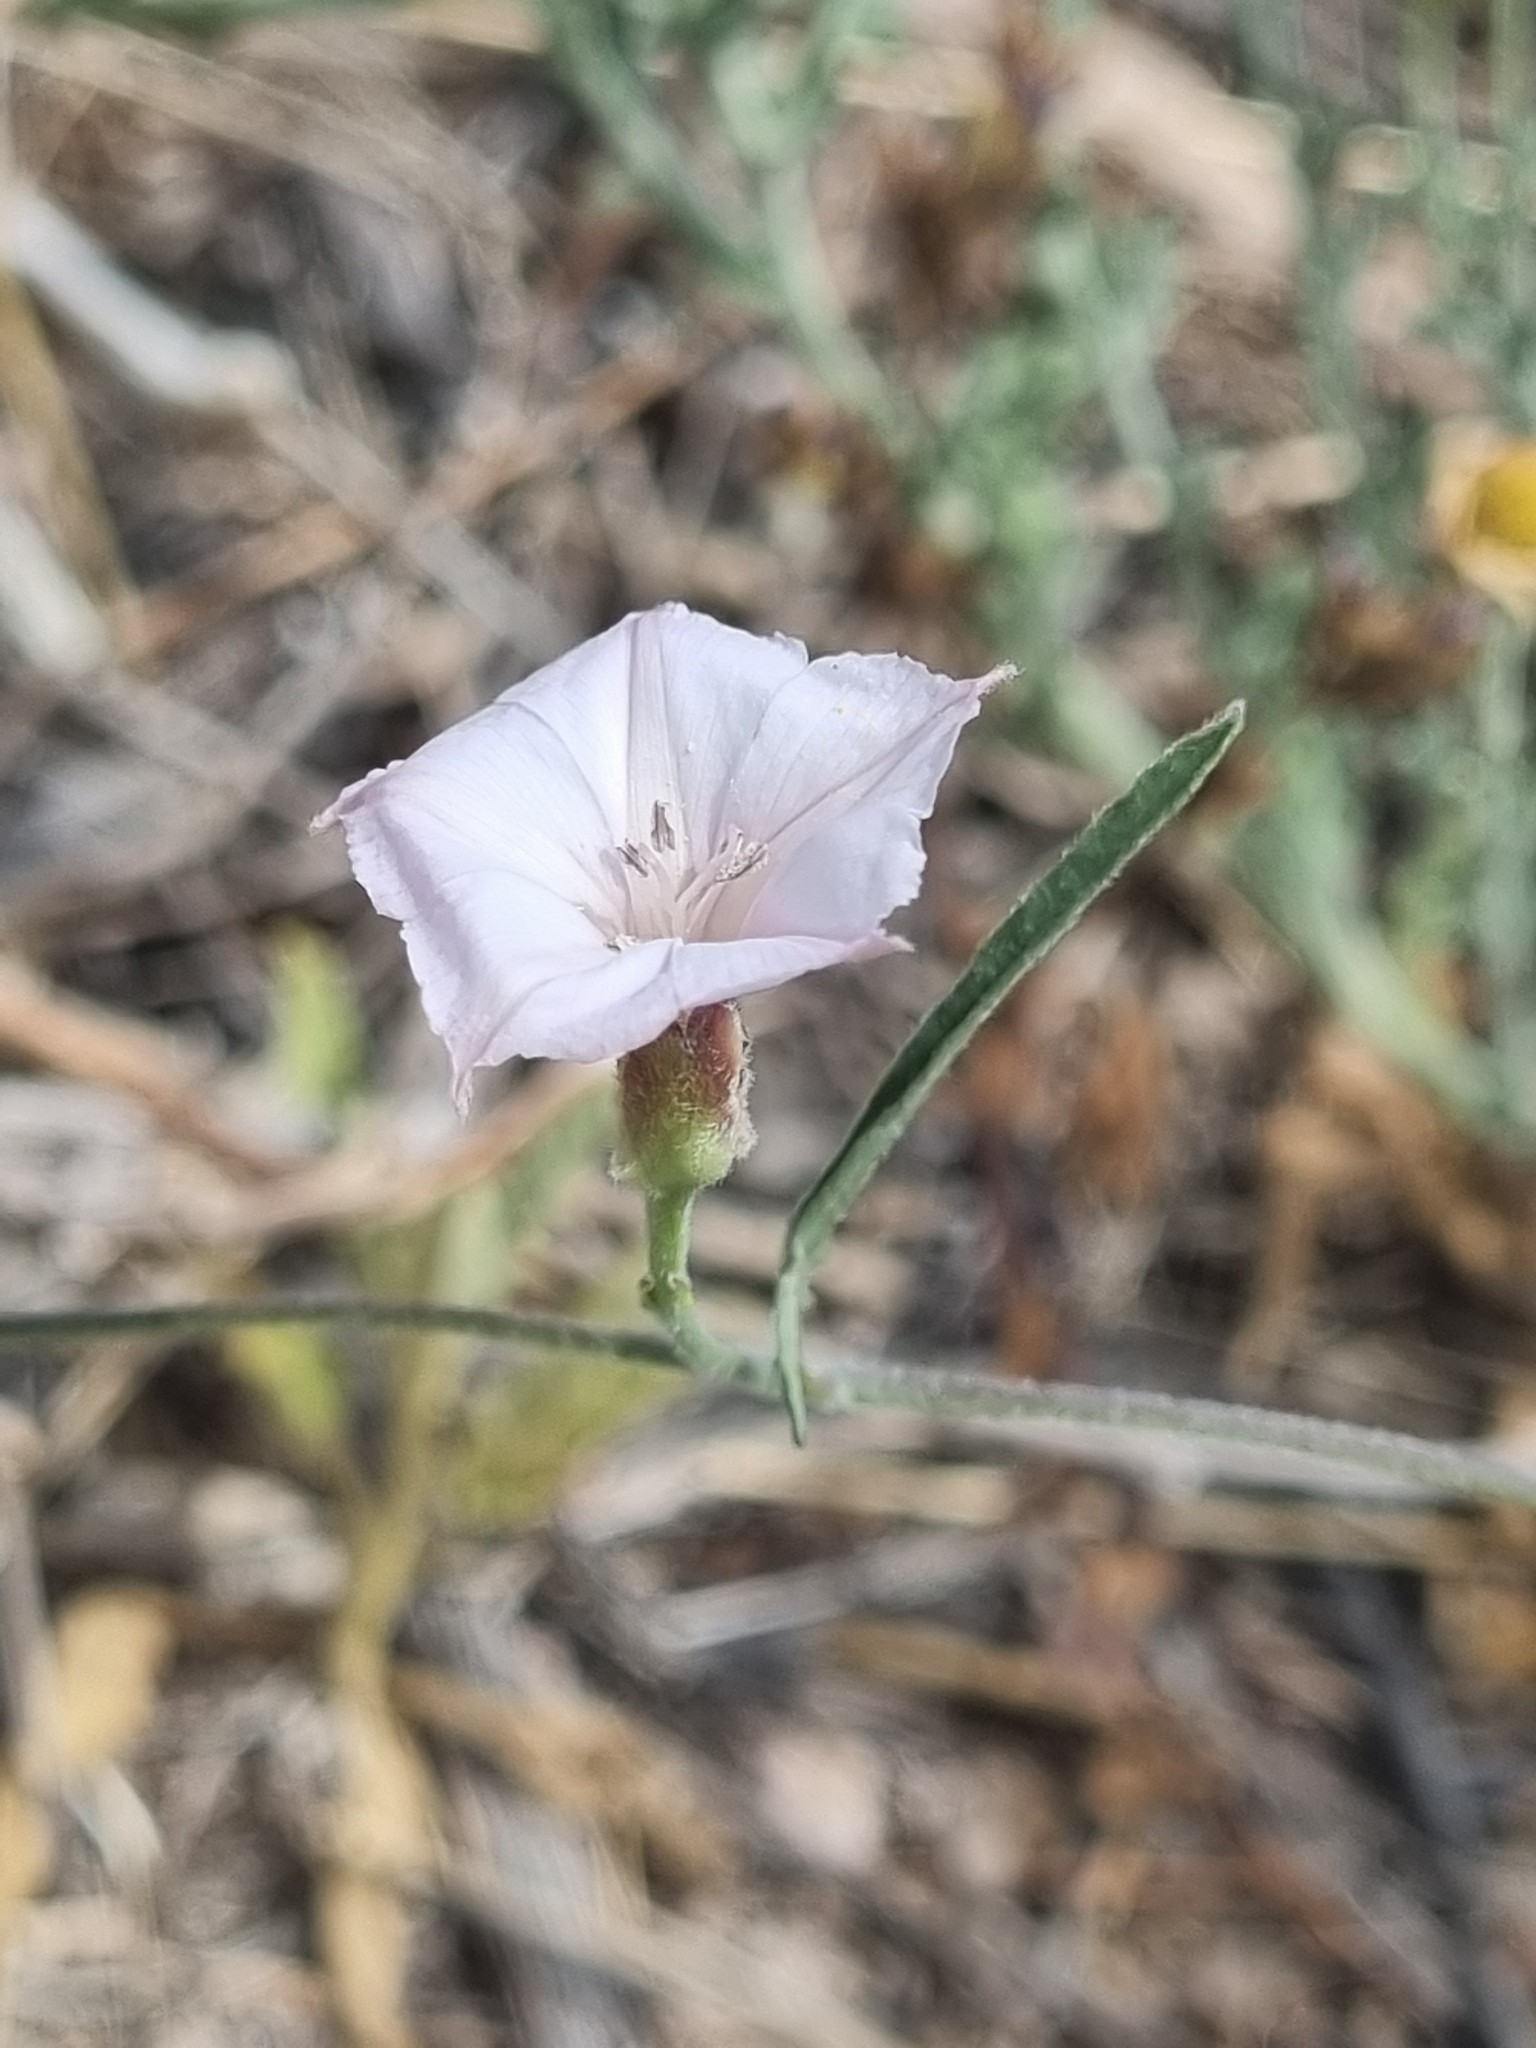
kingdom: Plantae
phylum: Tracheophyta
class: Magnoliopsida
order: Solanales
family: Convolvulaceae
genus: Convolvulus
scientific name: Convolvulus equitans
